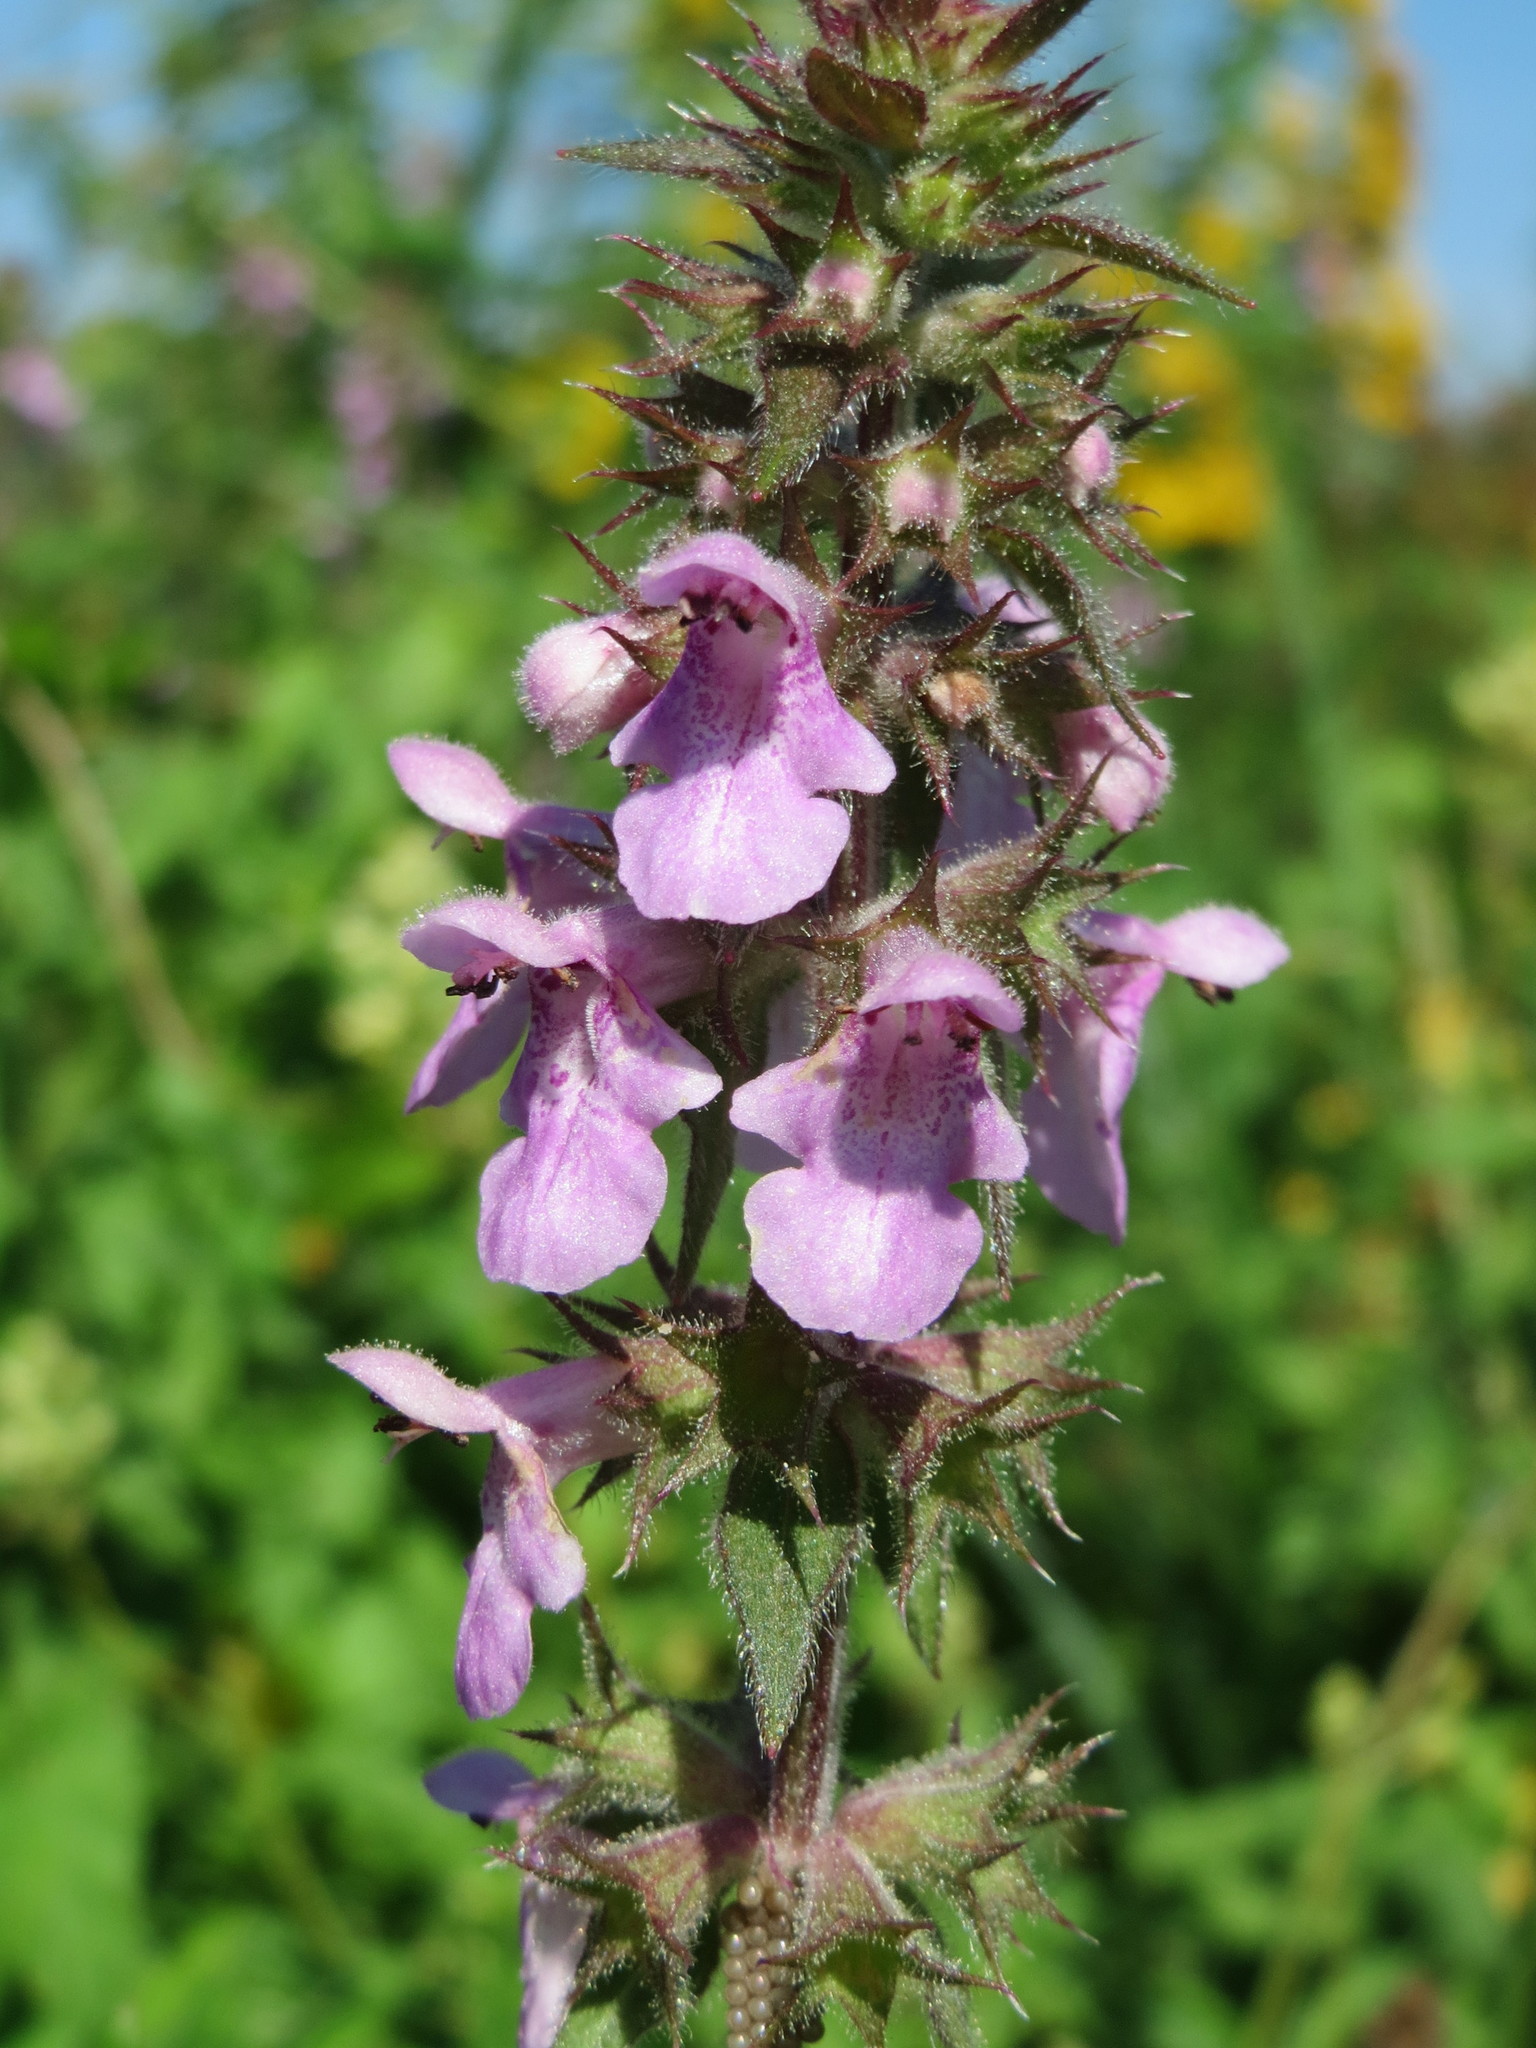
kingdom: Plantae
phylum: Tracheophyta
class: Magnoliopsida
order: Lamiales
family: Lamiaceae
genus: Stachys
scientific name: Stachys palustris
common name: Marsh woundwort
